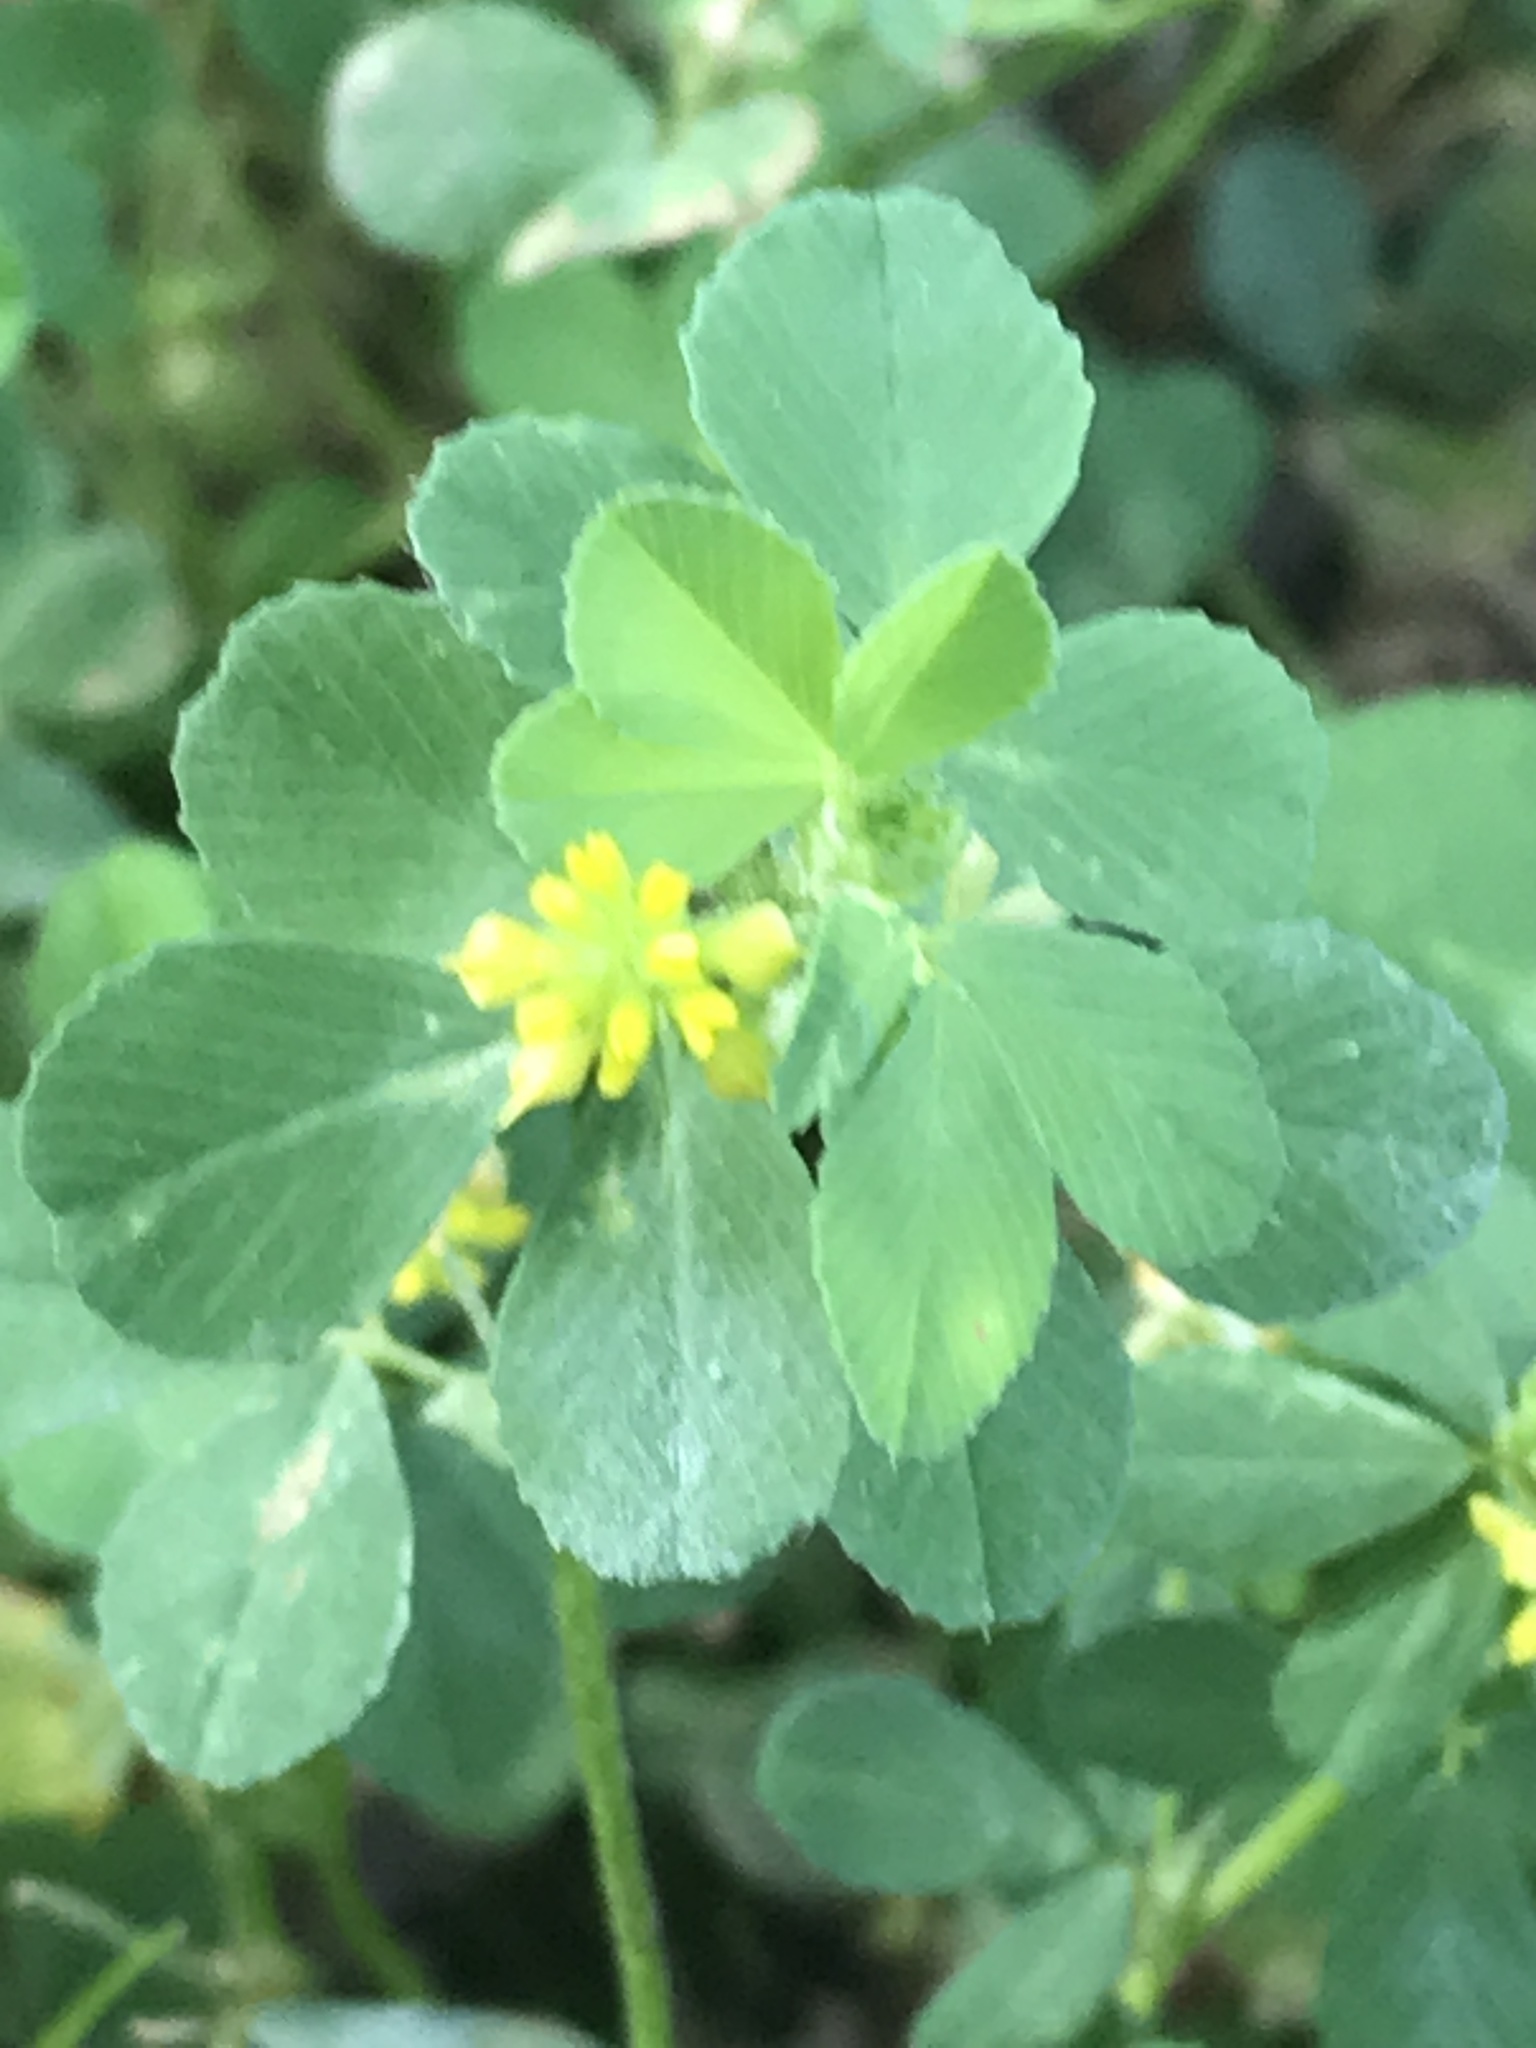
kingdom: Plantae
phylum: Tracheophyta
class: Magnoliopsida
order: Fabales
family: Fabaceae
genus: Trifolium
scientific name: Trifolium dubium
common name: Suckling clover
